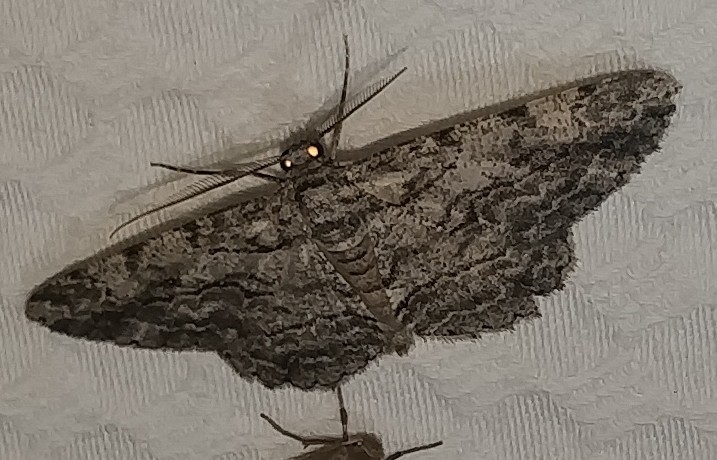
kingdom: Animalia
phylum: Arthropoda
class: Insecta
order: Lepidoptera
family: Geometridae
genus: Anavitrinella
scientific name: Anavitrinella pampinaria
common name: Common gray
